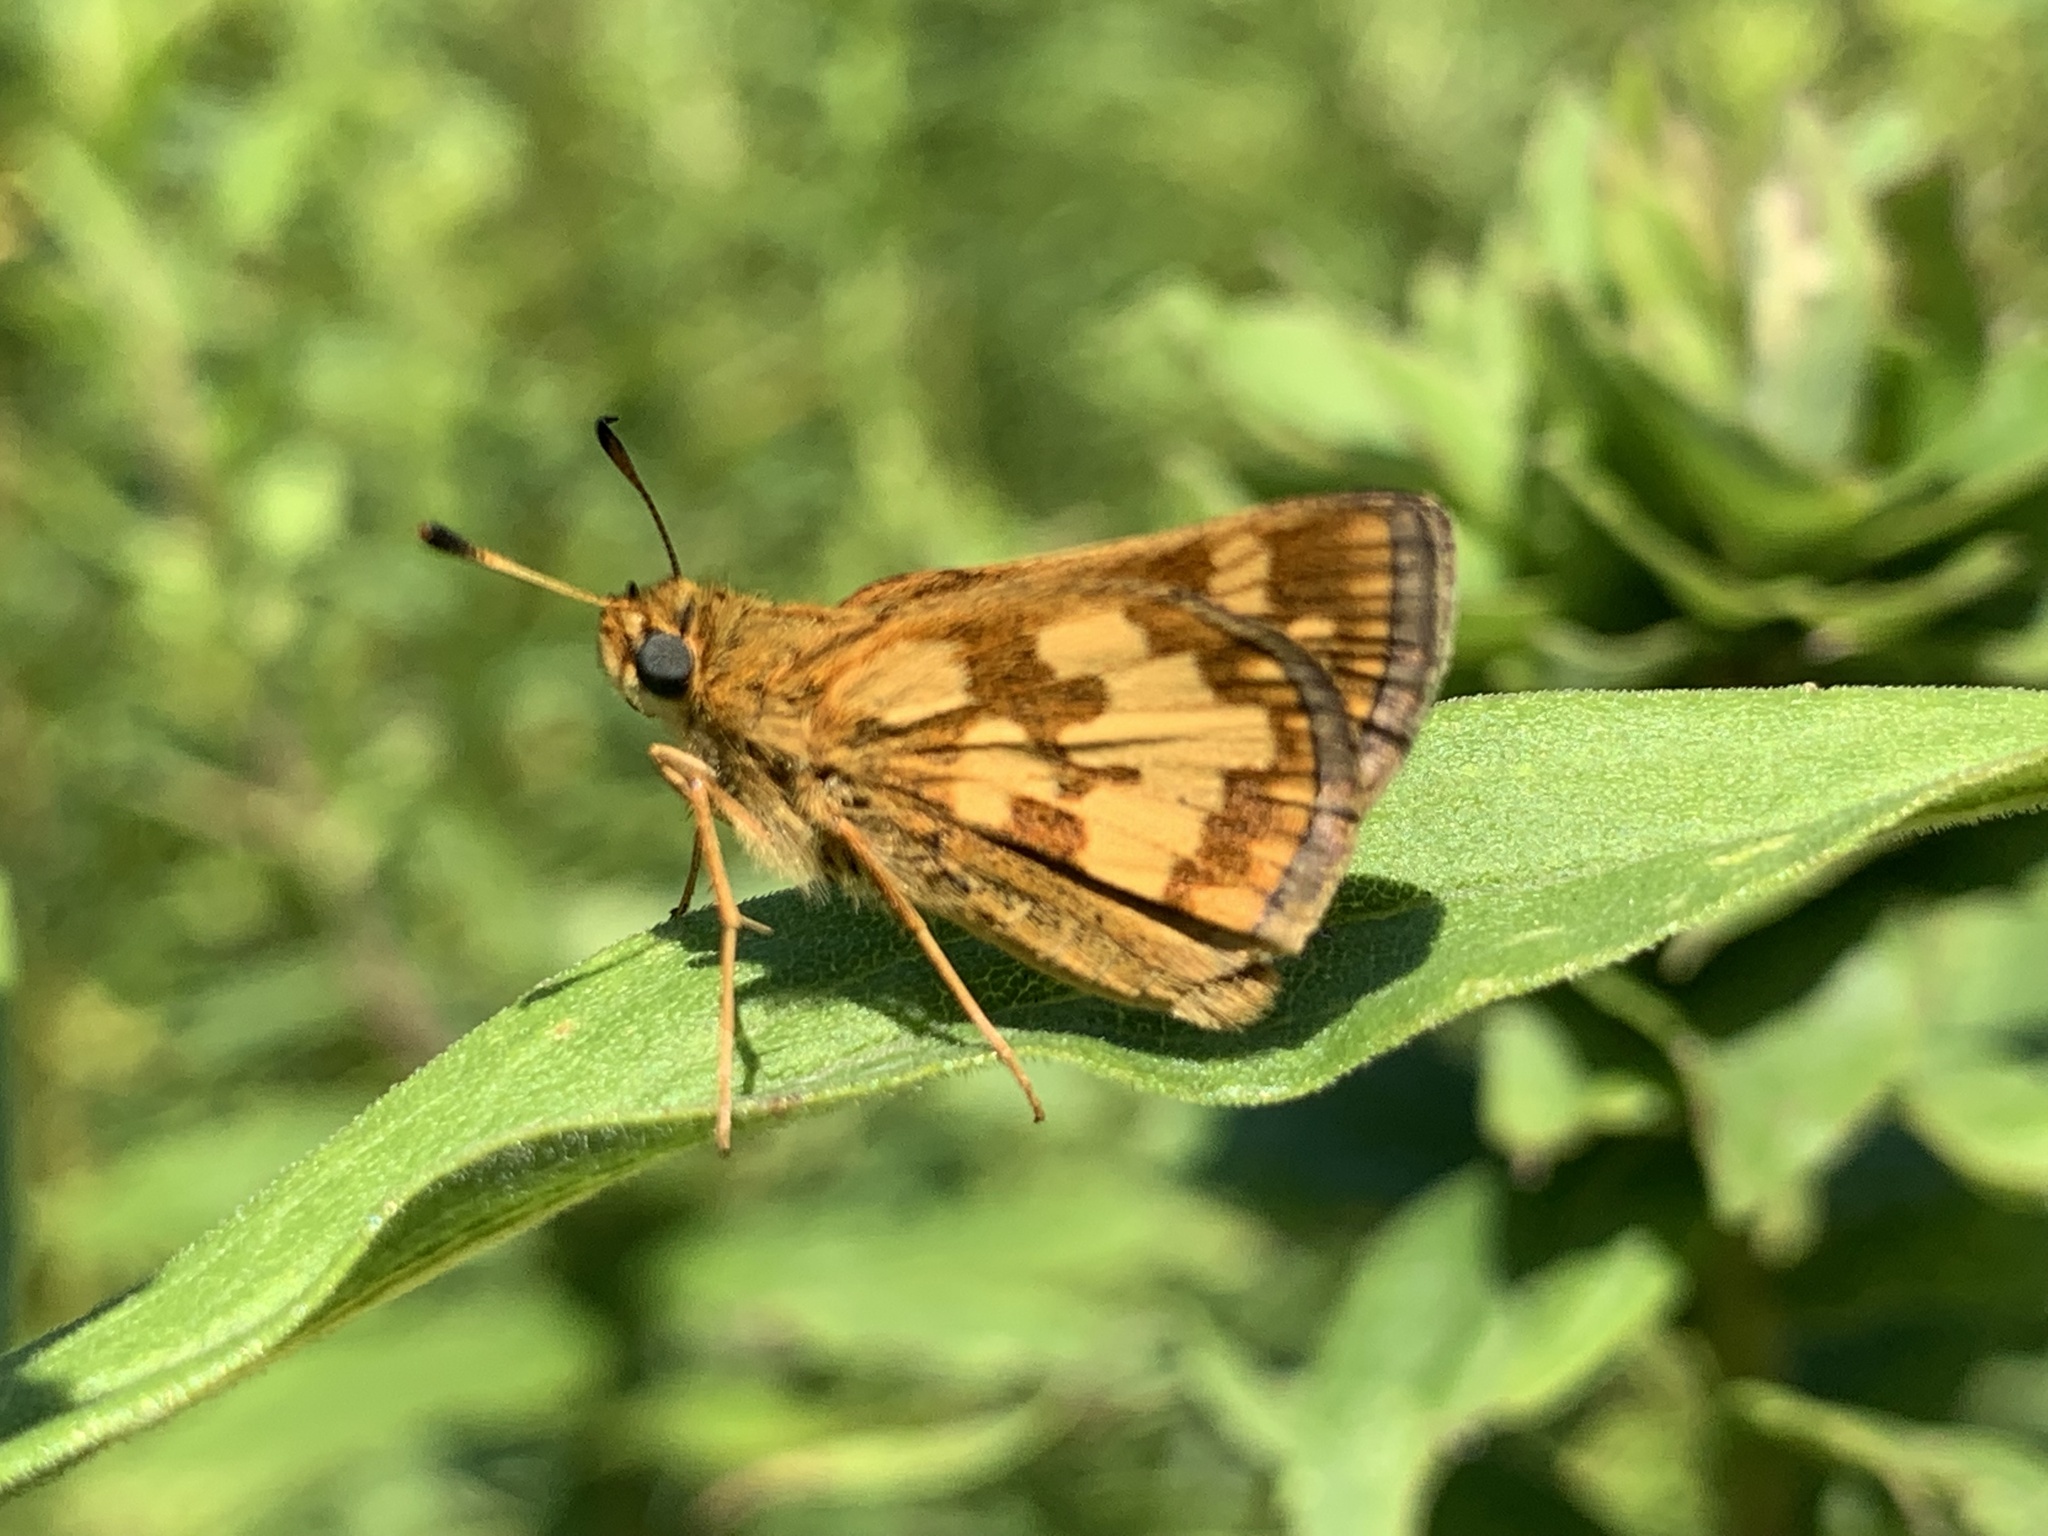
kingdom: Animalia
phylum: Arthropoda
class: Insecta
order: Lepidoptera
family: Hesperiidae
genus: Polites
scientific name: Polites coras
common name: Peck's skipper
